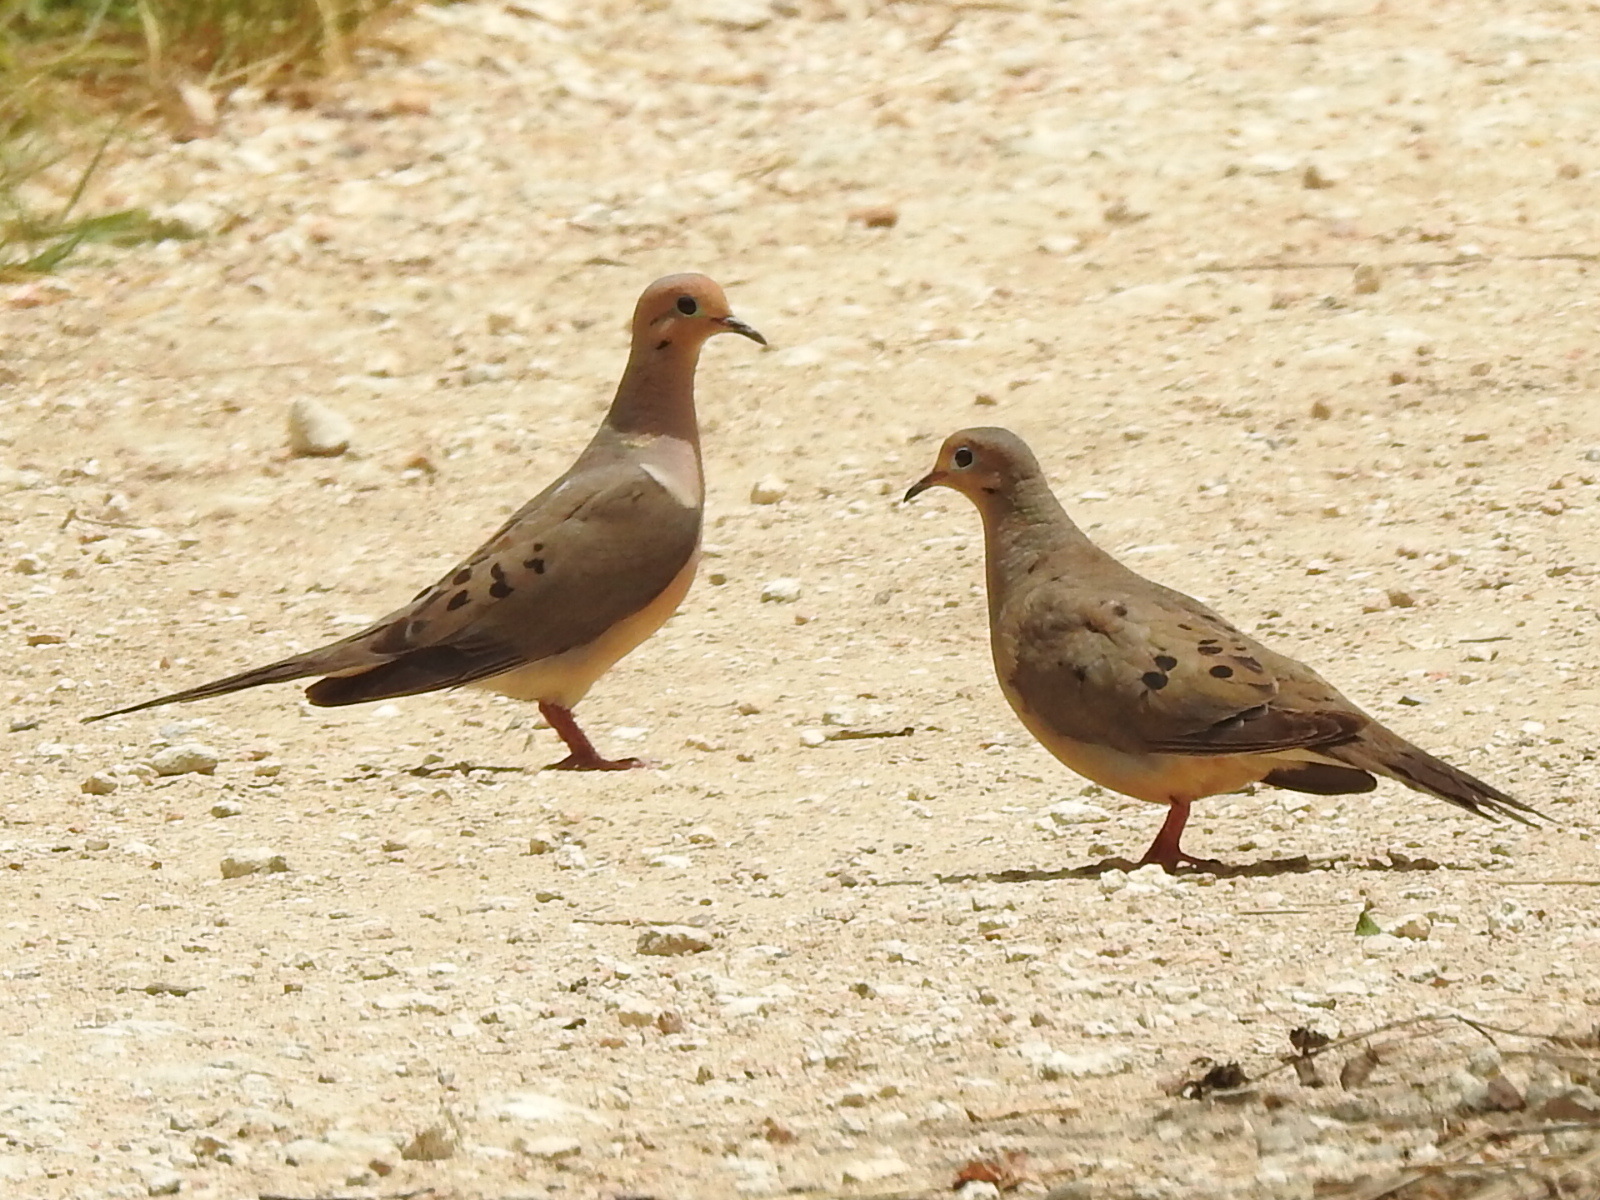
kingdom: Animalia
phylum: Chordata
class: Aves
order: Columbiformes
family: Columbidae
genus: Zenaida
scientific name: Zenaida macroura
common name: Mourning dove
